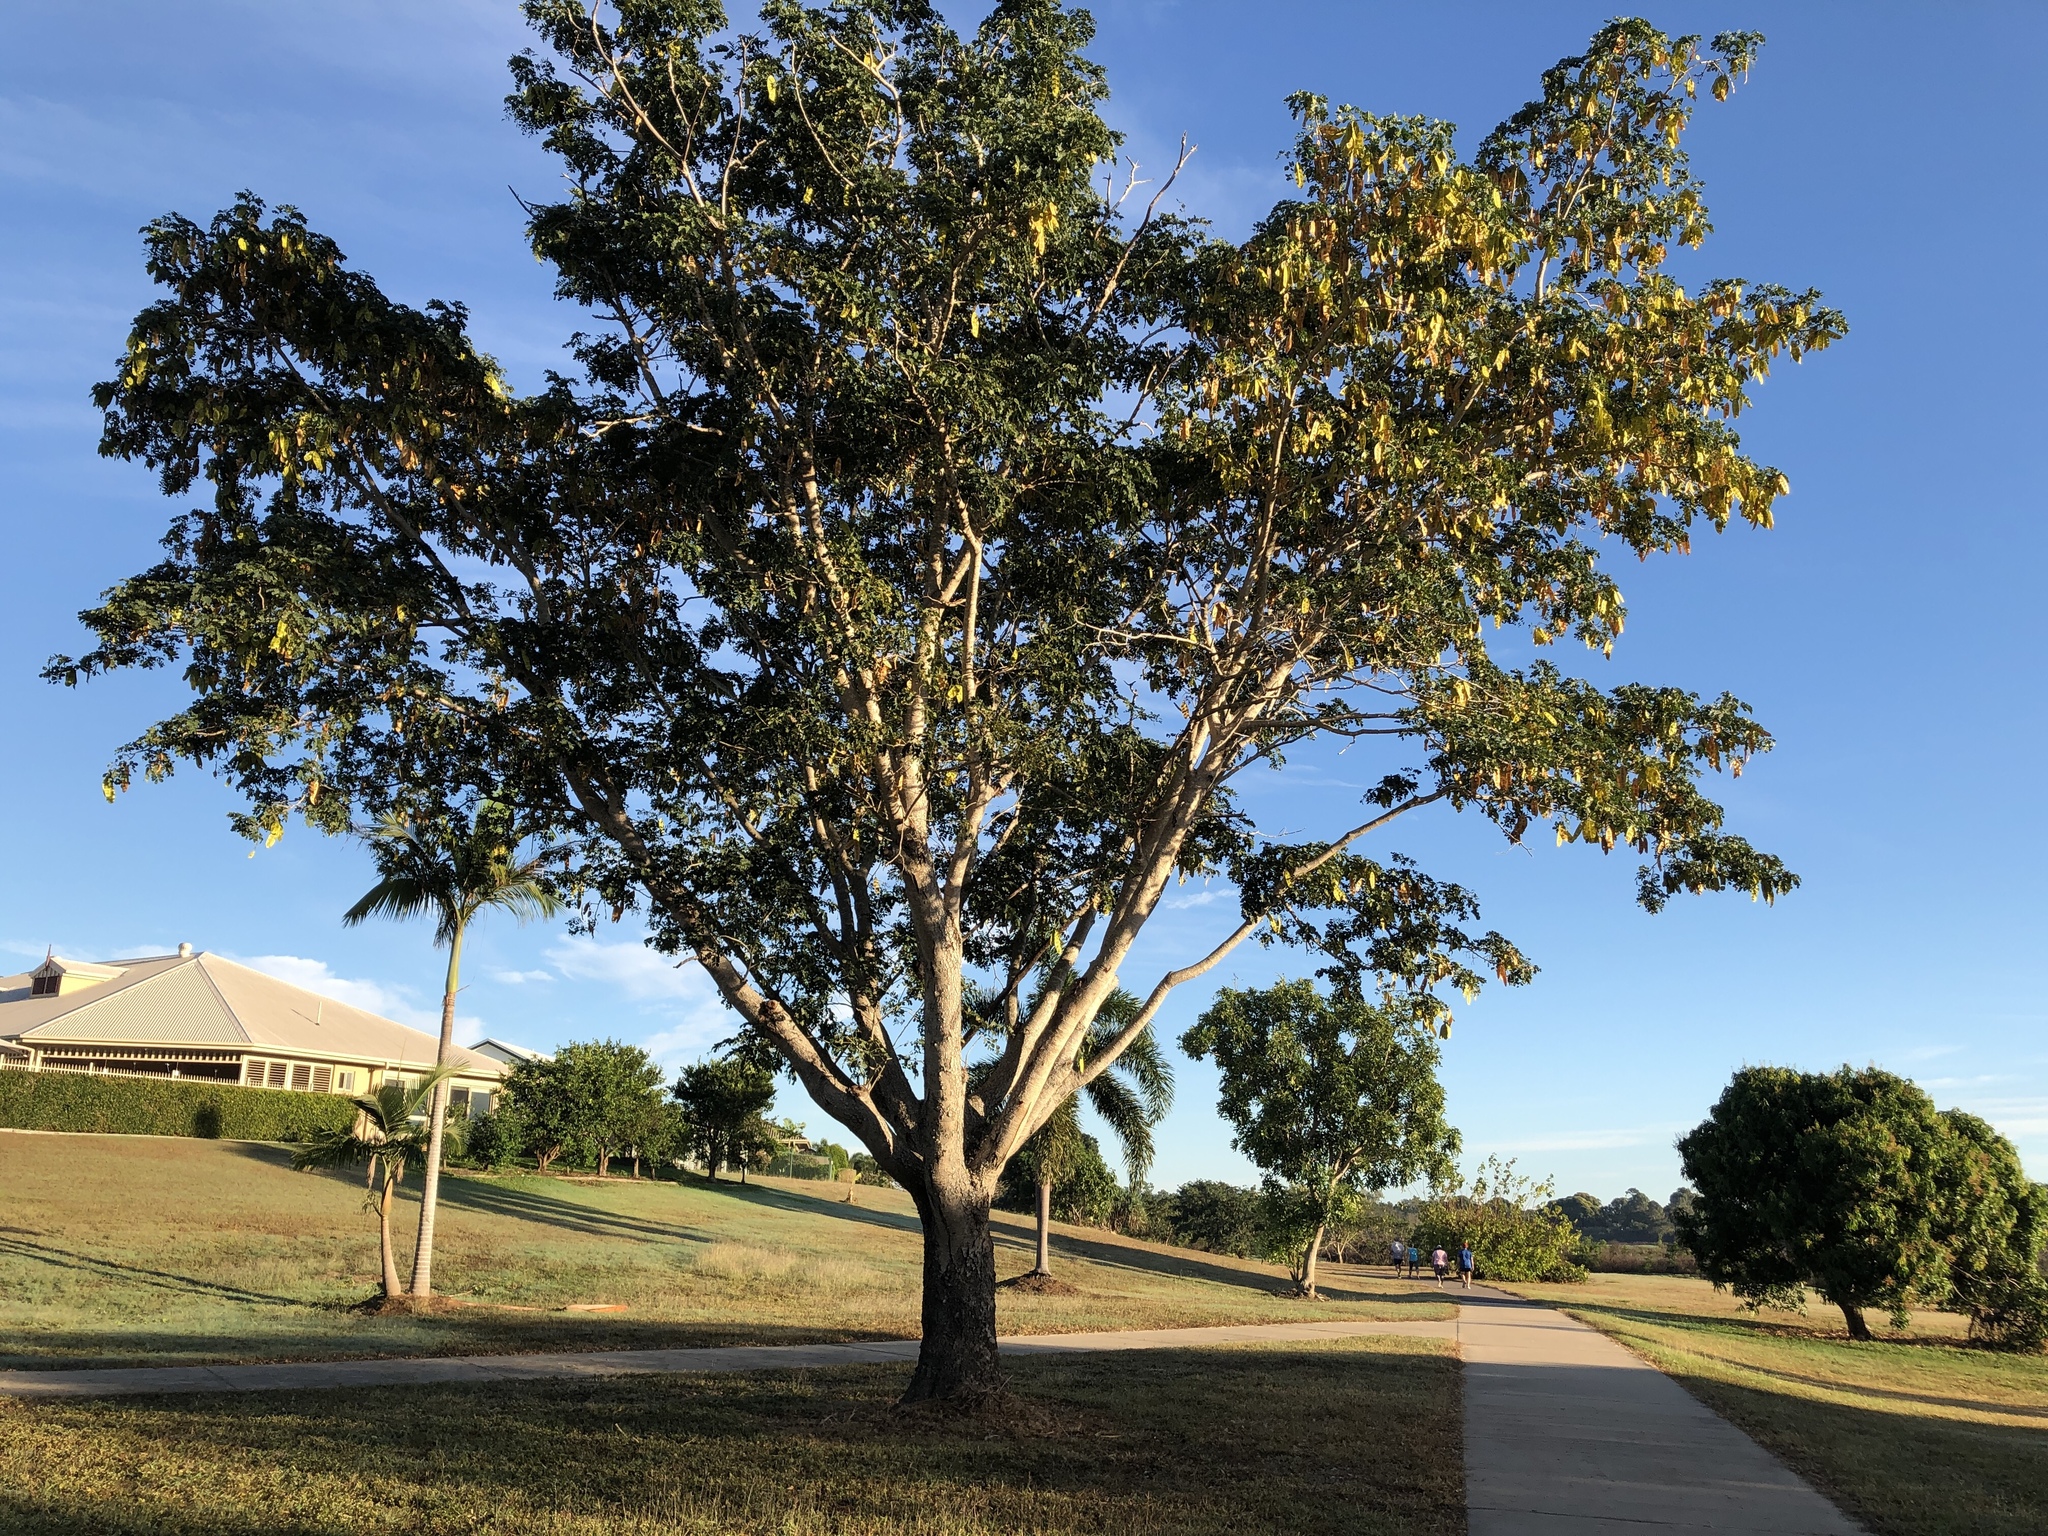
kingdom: Plantae
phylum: Tracheophyta
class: Magnoliopsida
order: Fabales
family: Fabaceae
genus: Albizia
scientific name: Albizia lebbeck
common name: Woman's tongue
